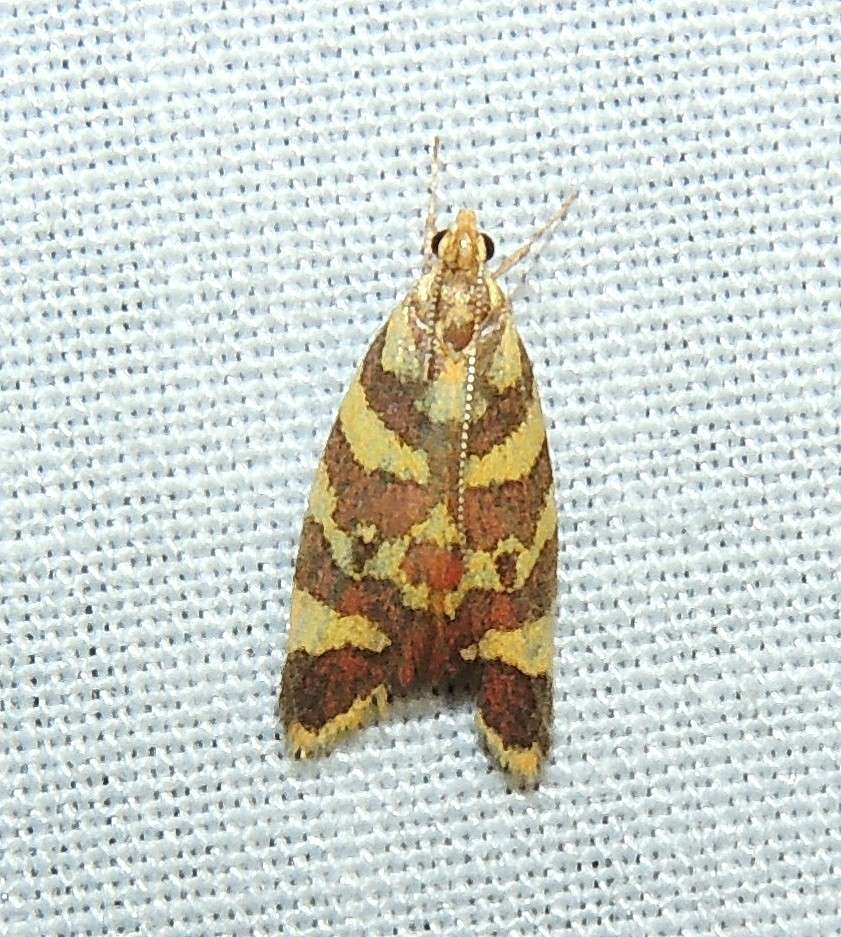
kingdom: Animalia
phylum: Arthropoda
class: Insecta
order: Lepidoptera
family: Oecophoridae
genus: Tisobarica
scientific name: Tisobarica thyteria
